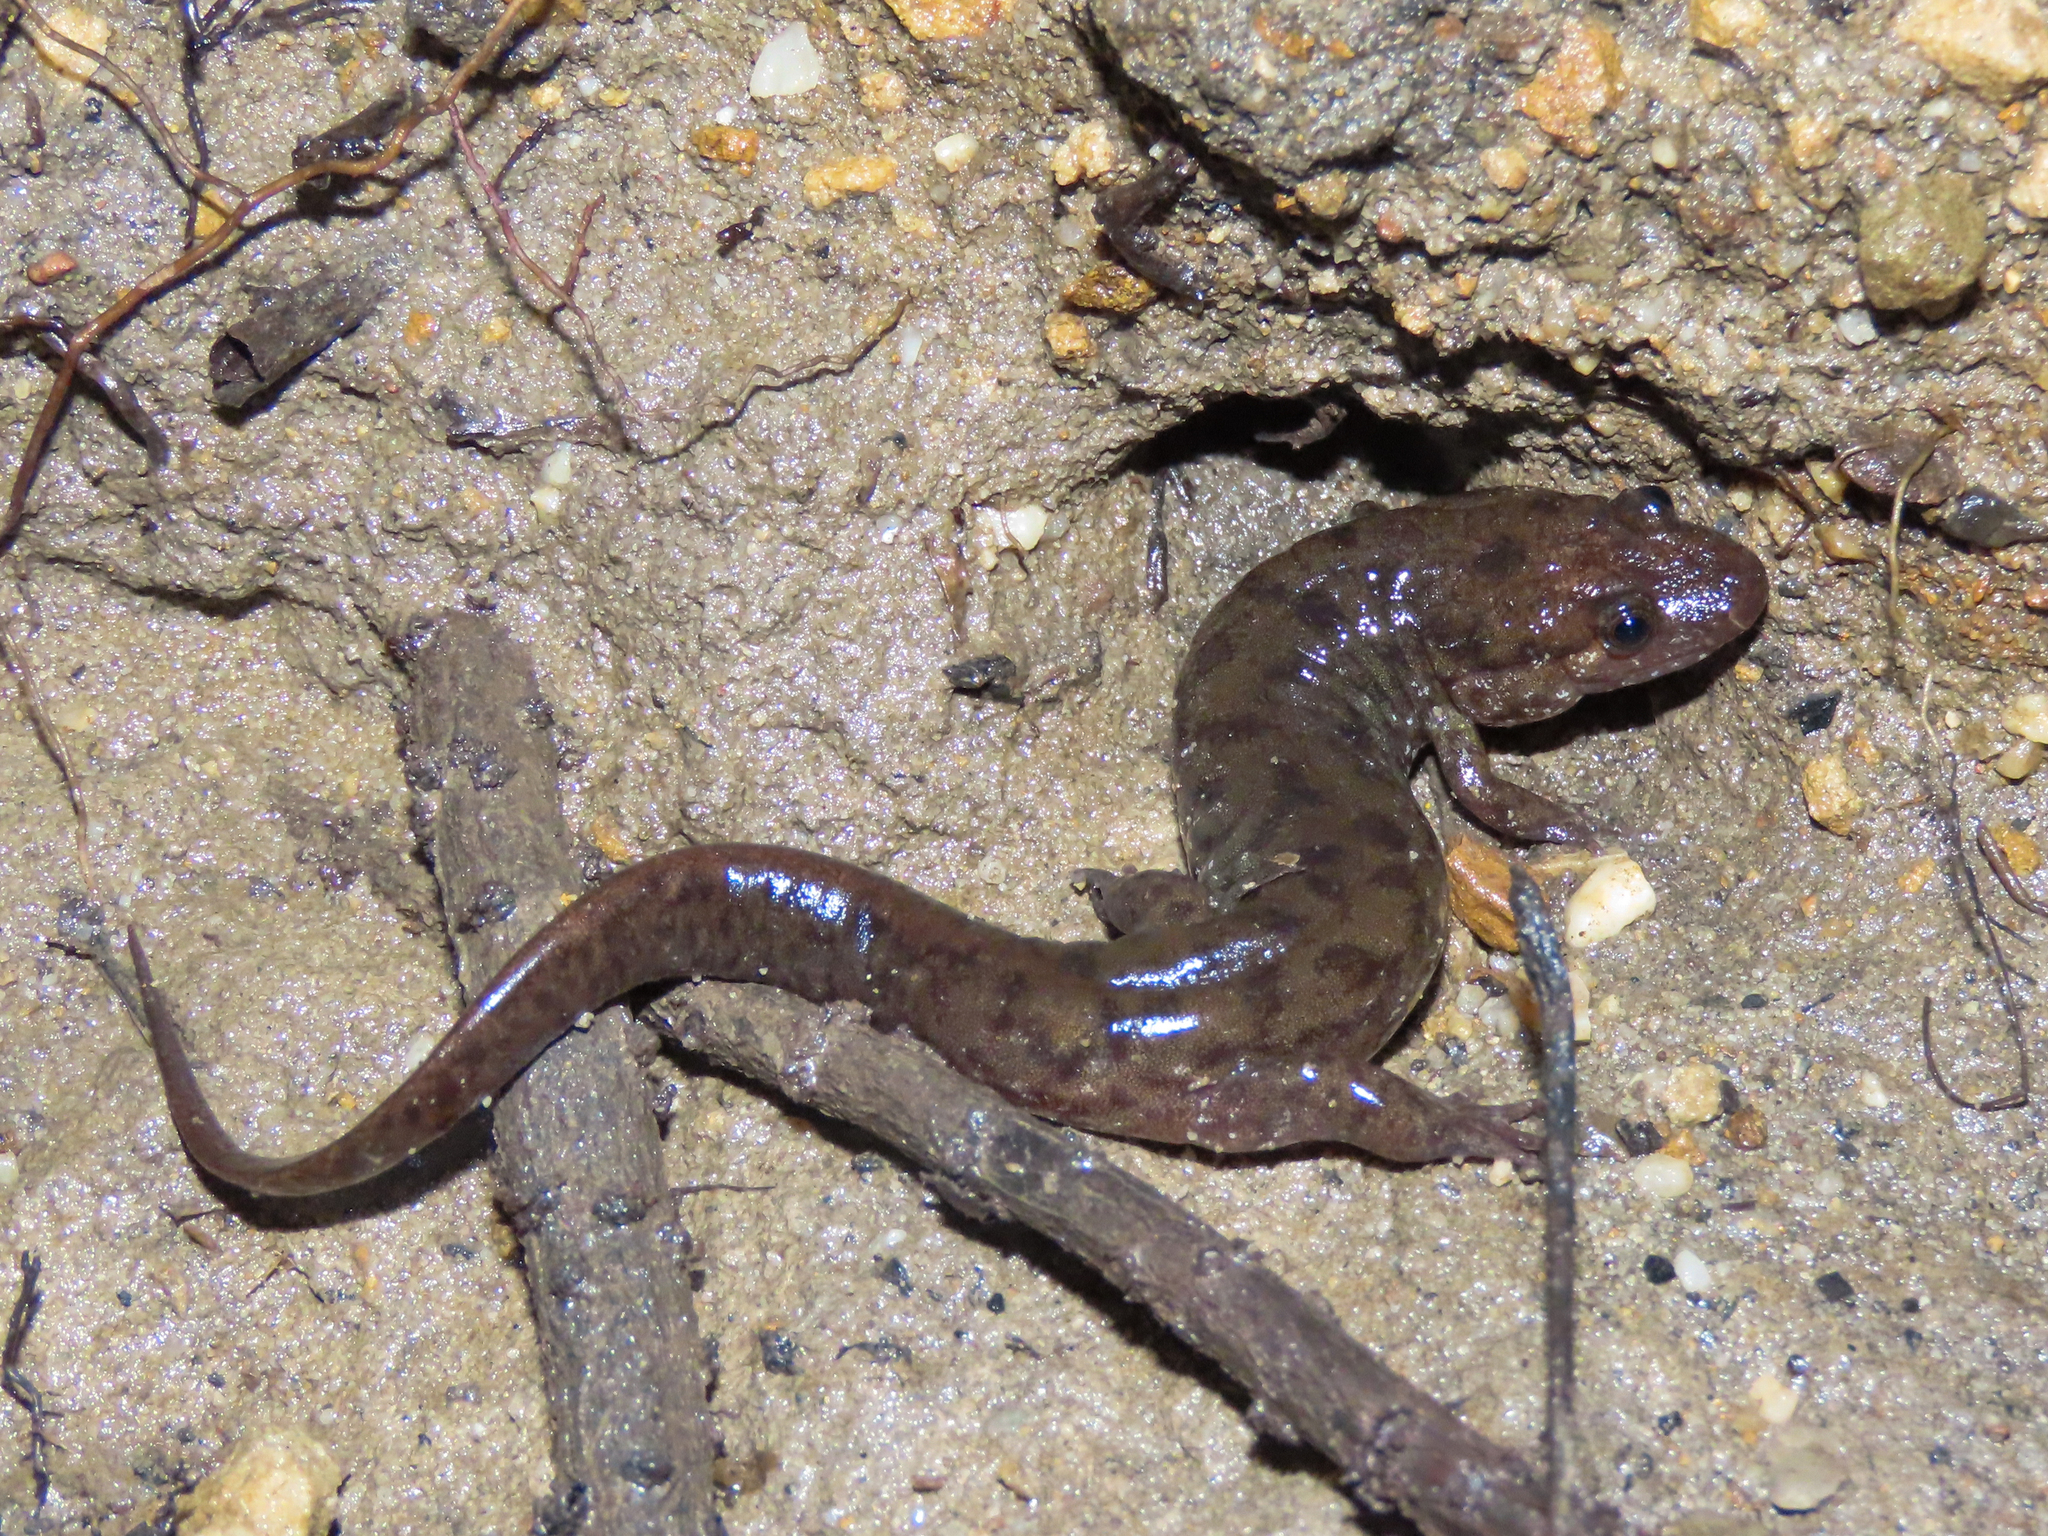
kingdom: Animalia
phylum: Chordata
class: Amphibia
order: Caudata
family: Plethodontidae
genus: Desmognathus
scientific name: Desmognathus monticola
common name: Seal salamander
